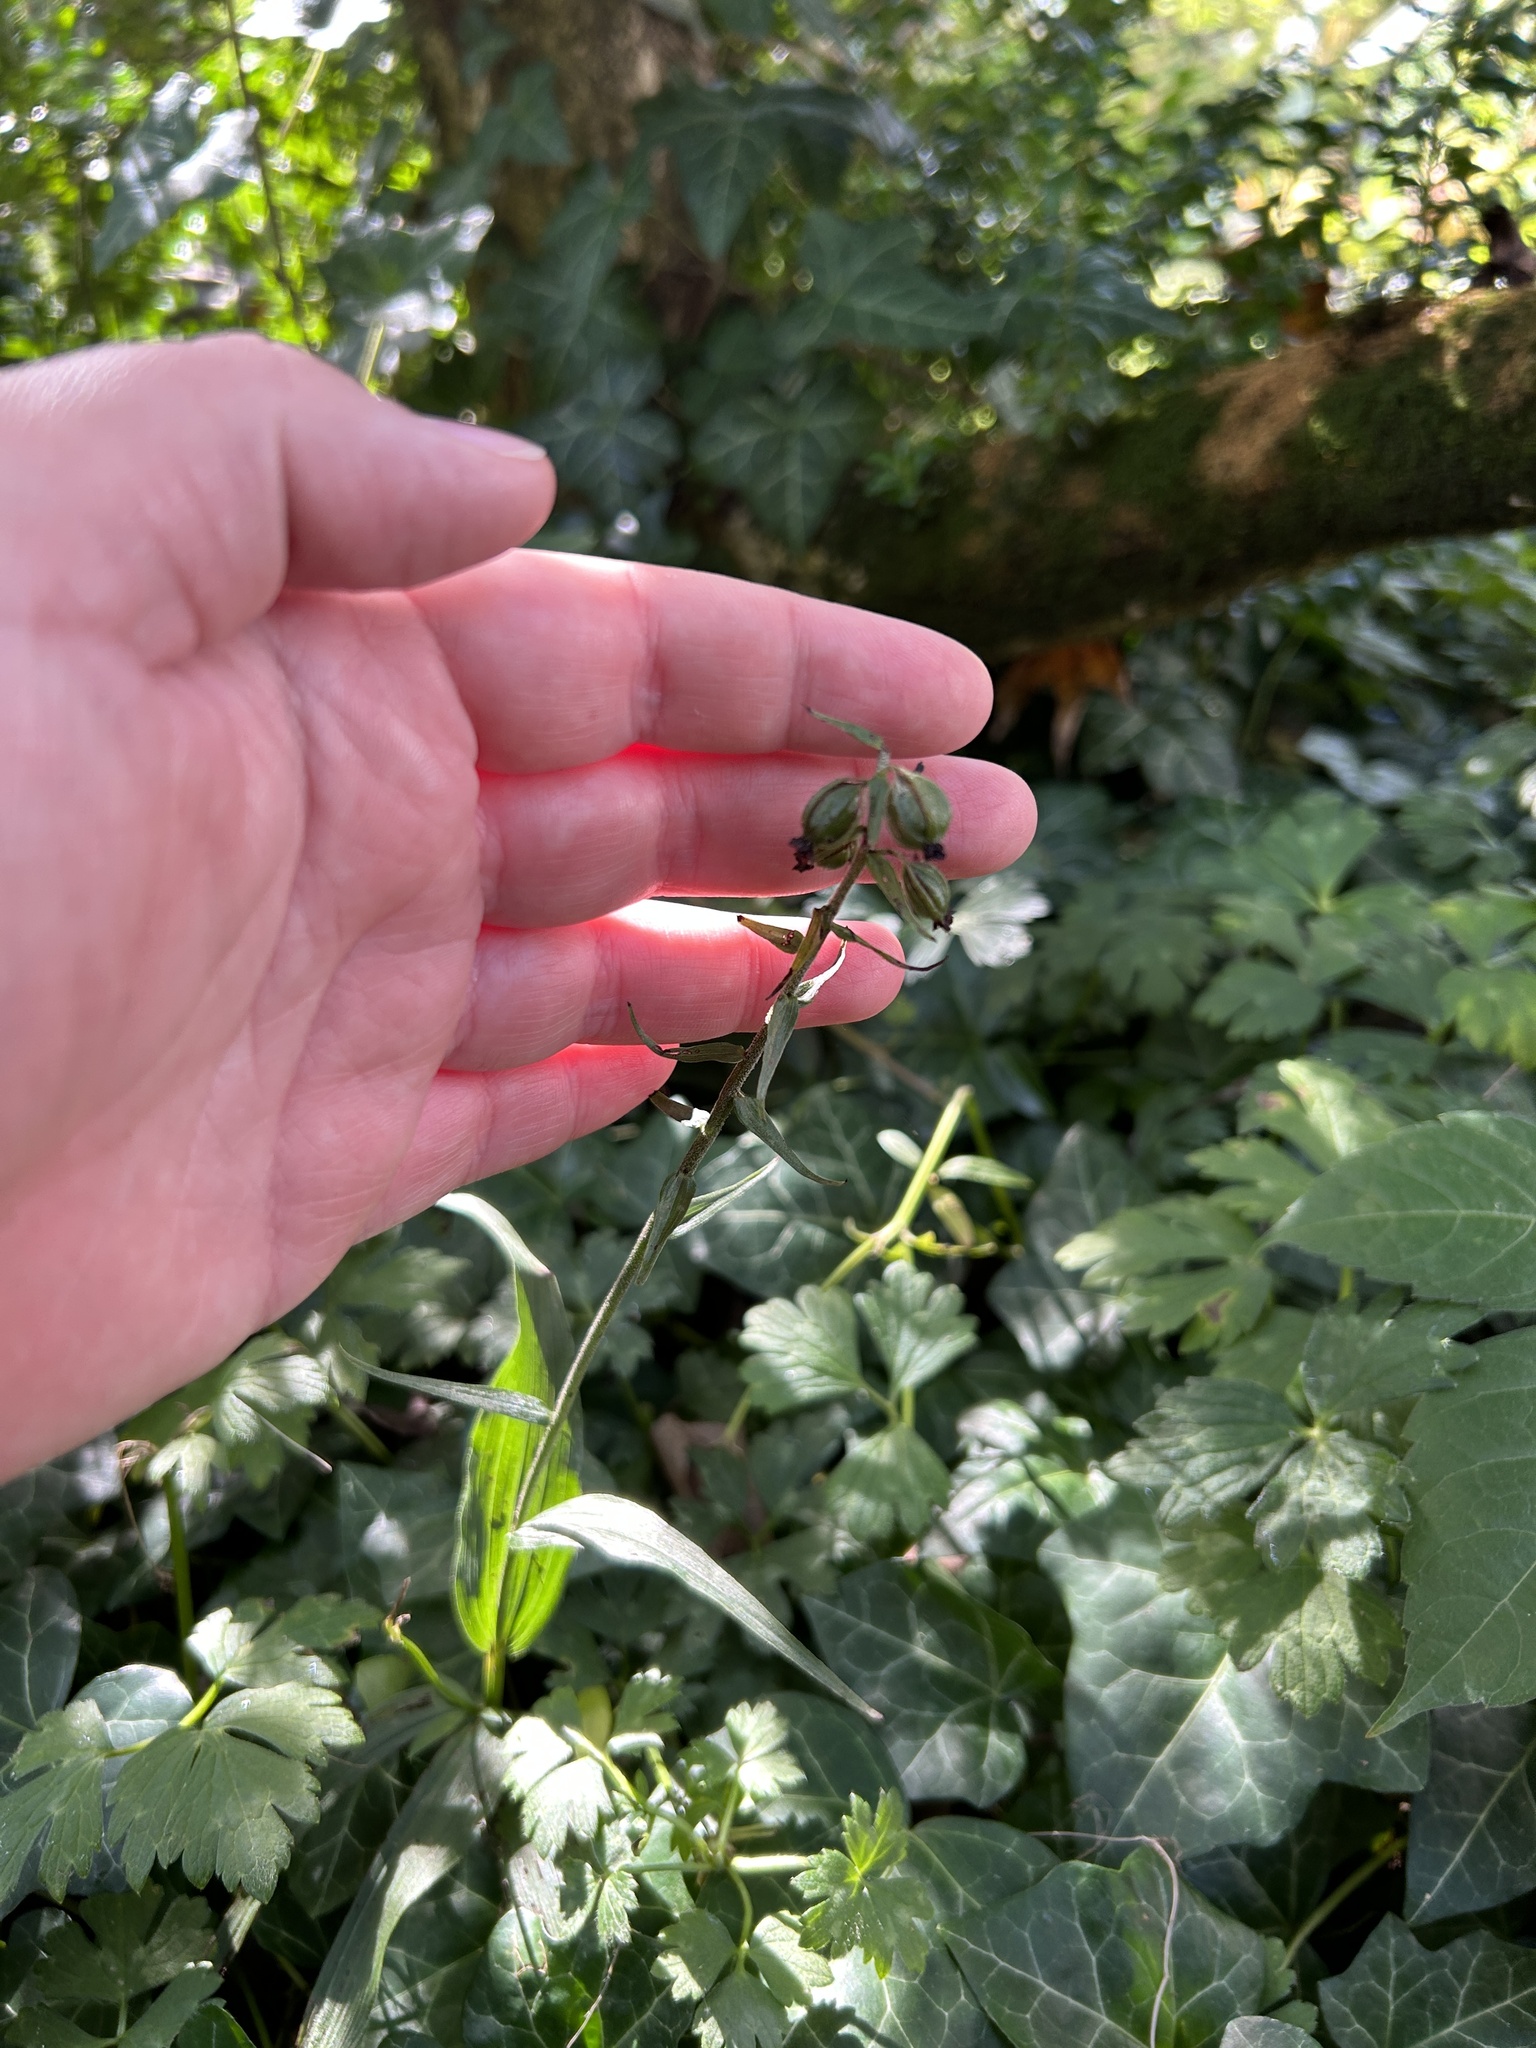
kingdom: Plantae
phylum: Tracheophyta
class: Liliopsida
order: Asparagales
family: Orchidaceae
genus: Epipactis
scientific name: Epipactis helleborine
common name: Broad-leaved helleborine
